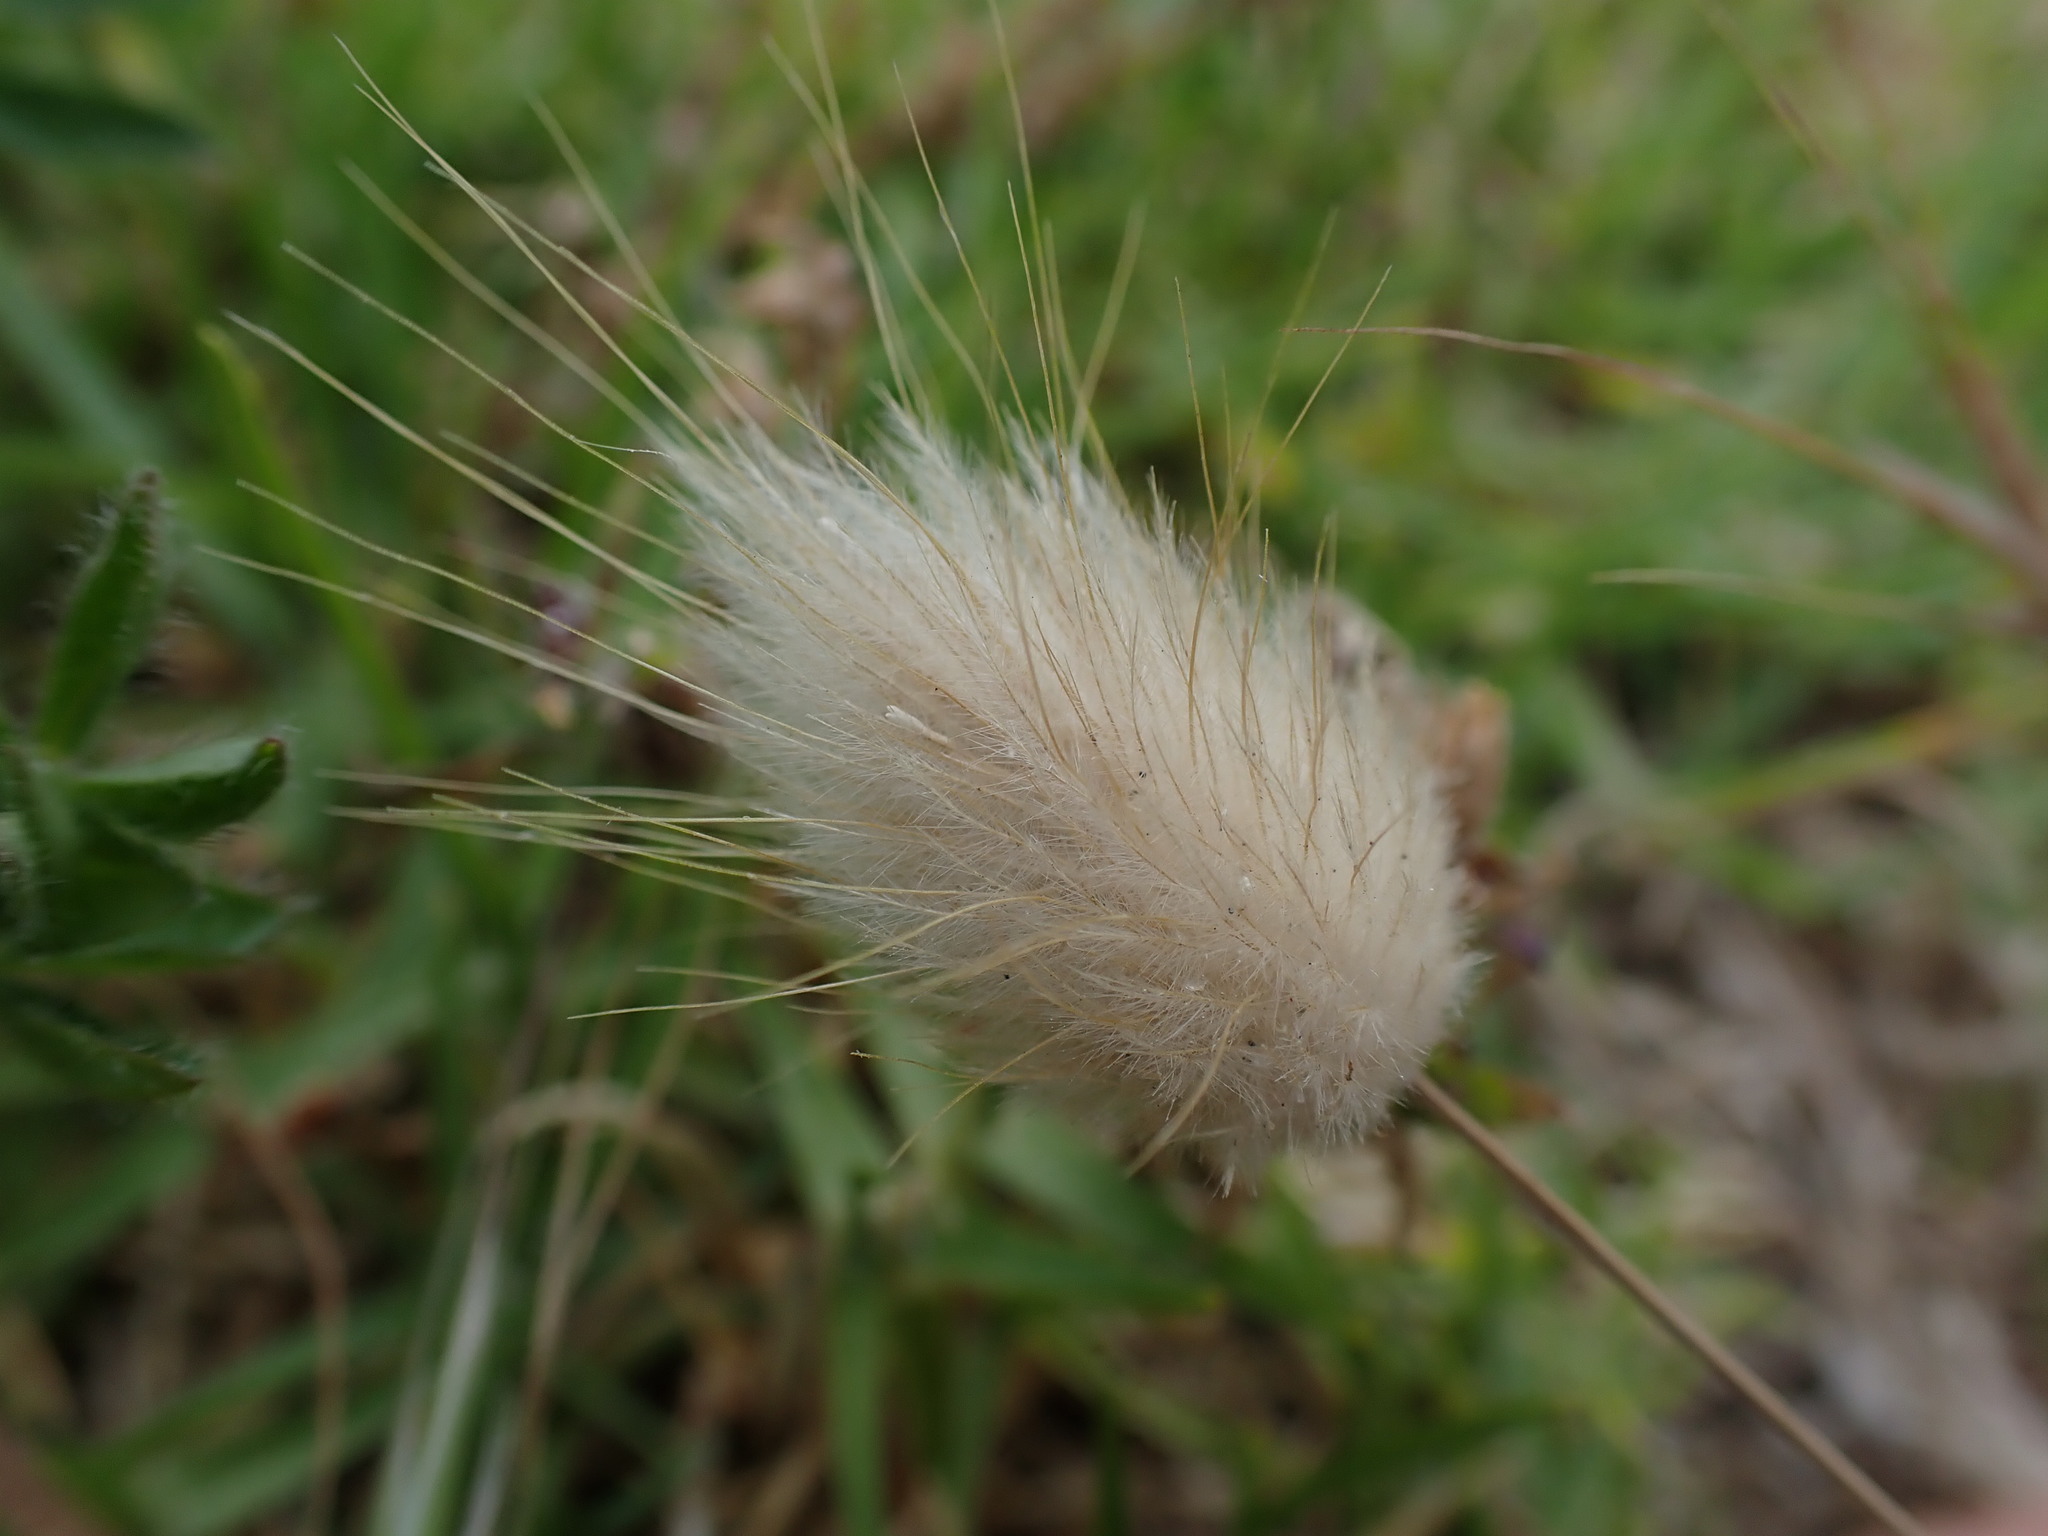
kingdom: Plantae
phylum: Tracheophyta
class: Liliopsida
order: Poales
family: Poaceae
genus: Lagurus
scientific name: Lagurus ovatus
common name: Hare's-tail
